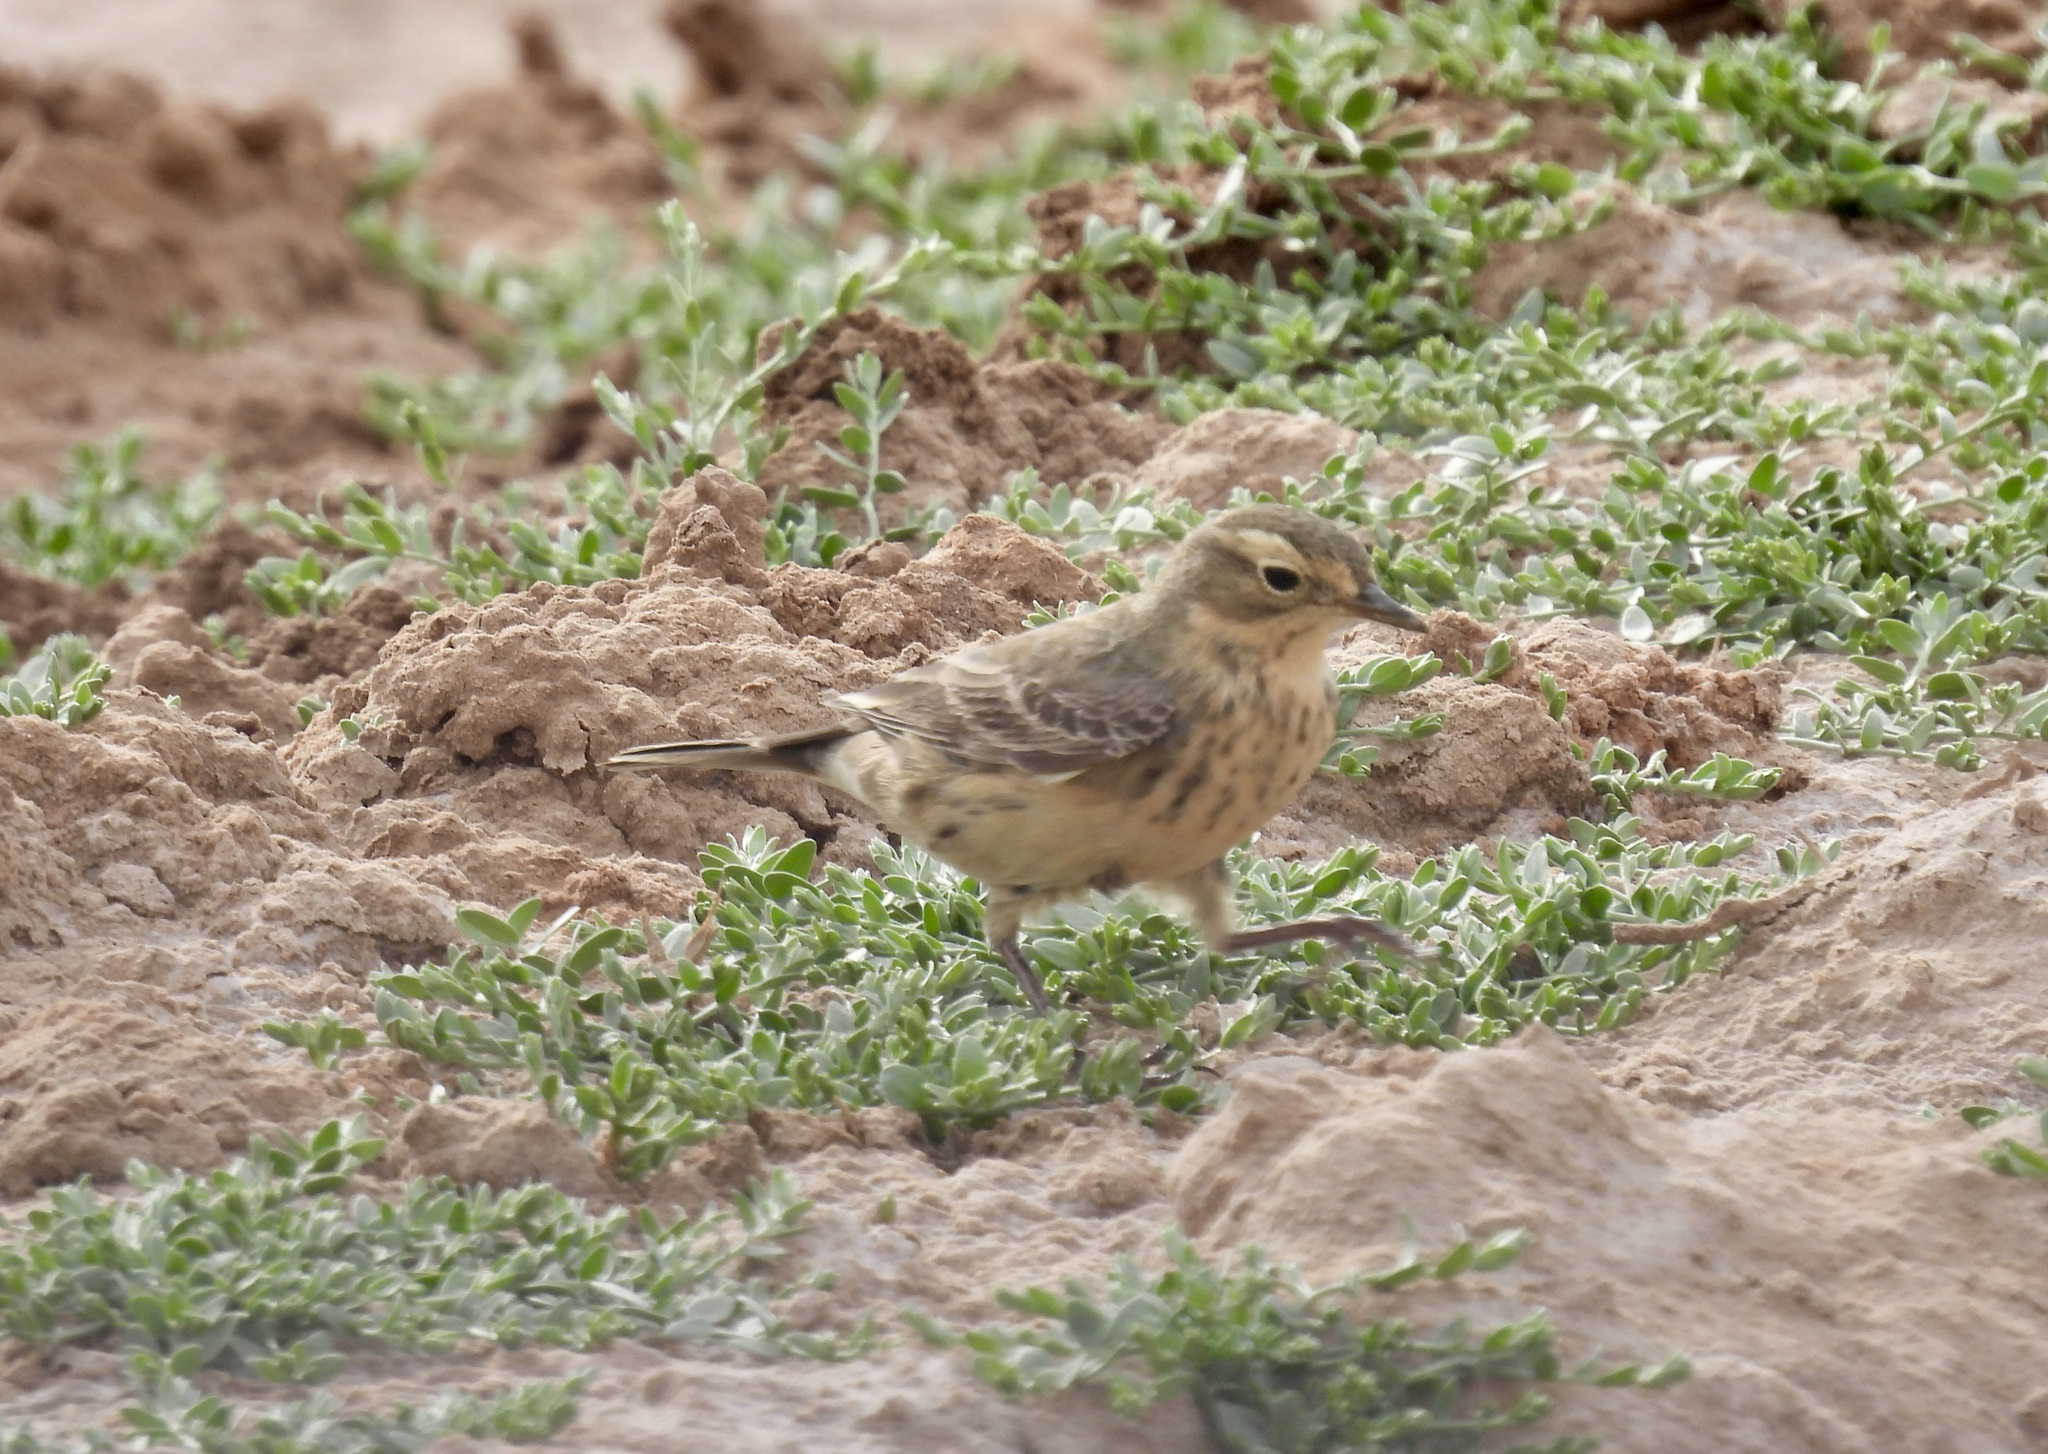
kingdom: Animalia
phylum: Chordata
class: Aves
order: Passeriformes
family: Motacillidae
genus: Anthus
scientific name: Anthus rubescens
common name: Buff-bellied pipit
